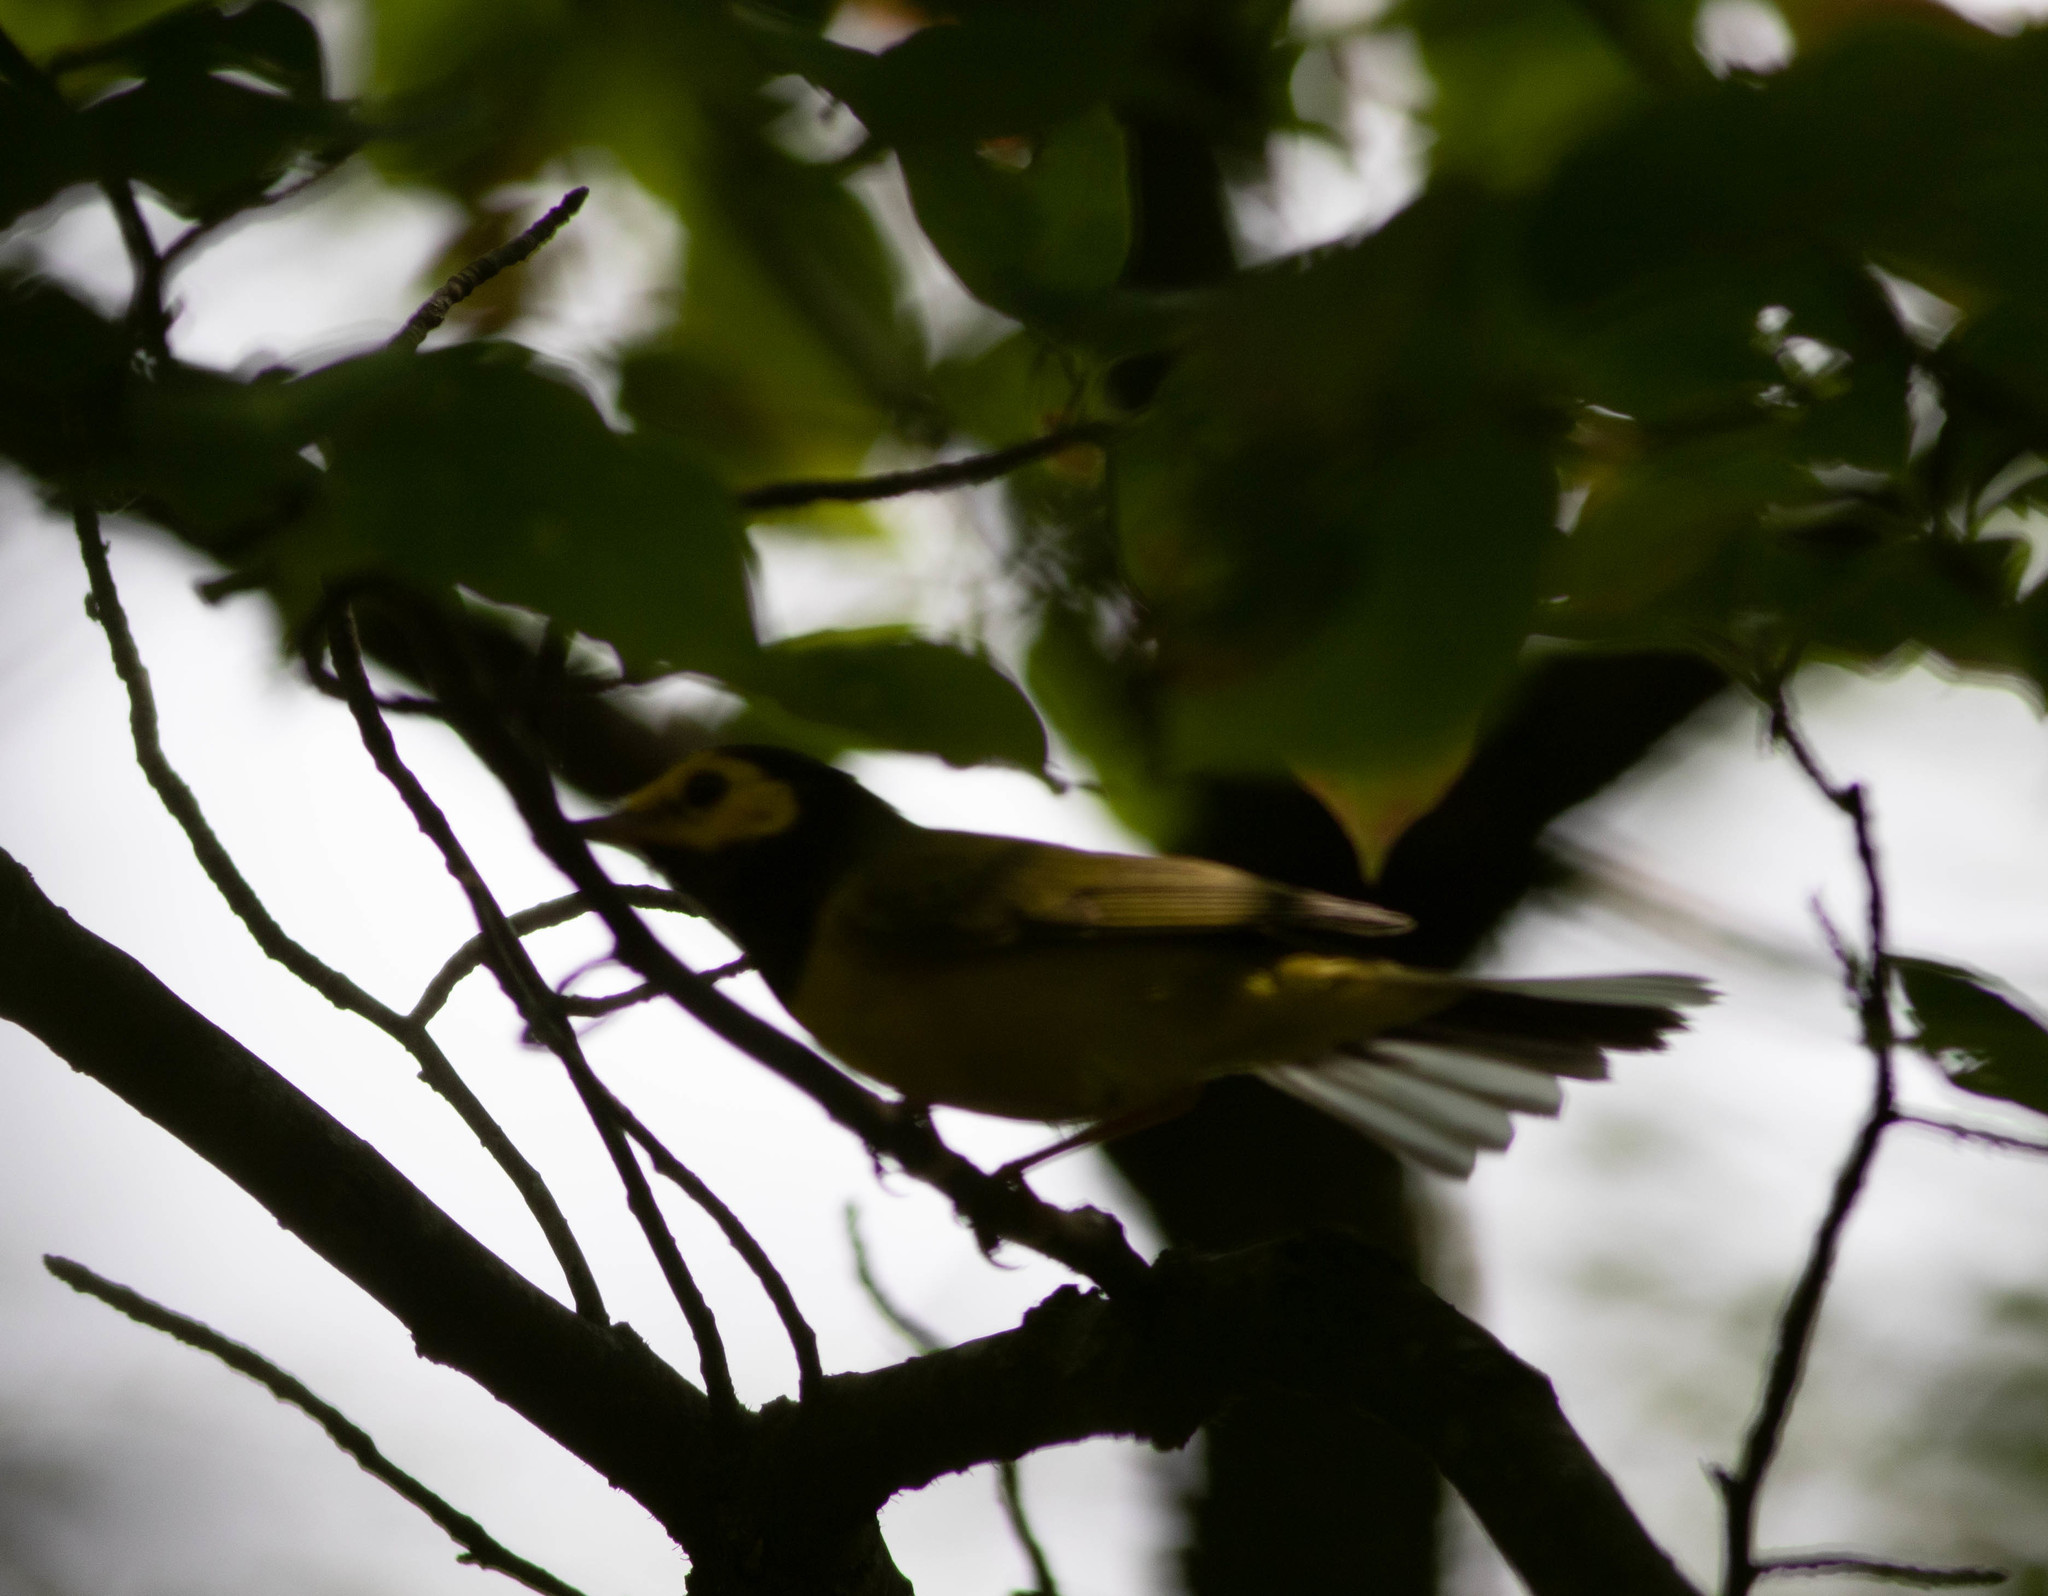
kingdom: Animalia
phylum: Chordata
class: Aves
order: Passeriformes
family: Parulidae
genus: Setophaga
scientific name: Setophaga citrina
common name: Hooded warbler
